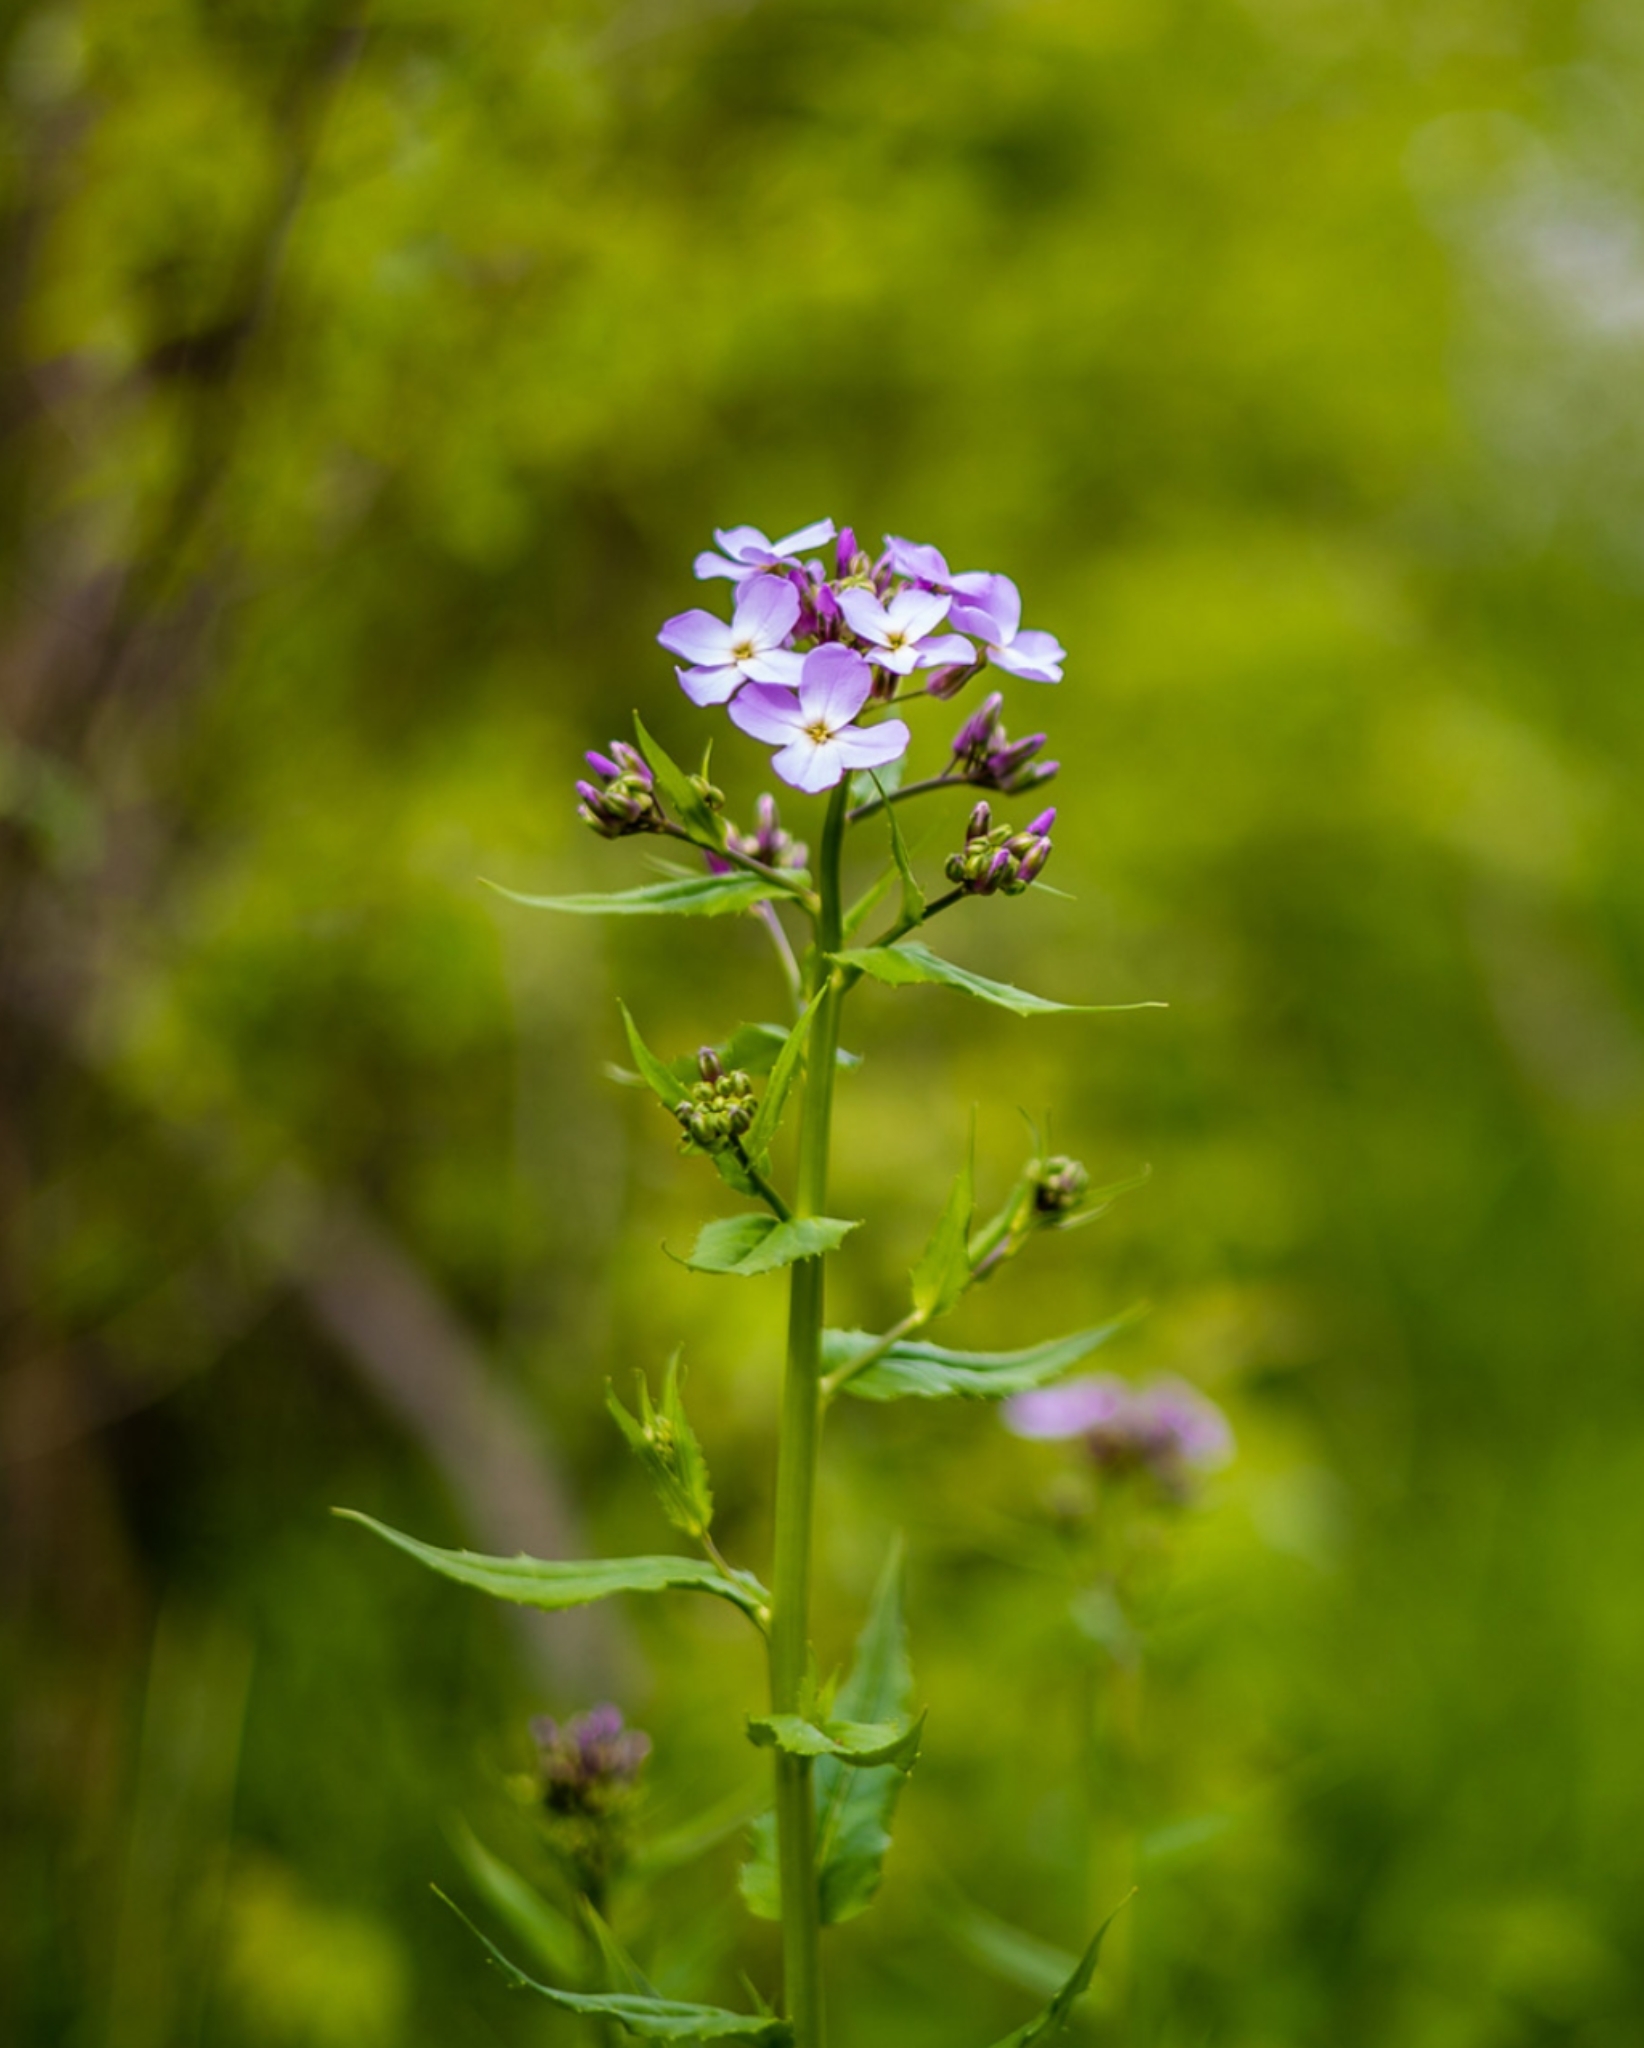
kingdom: Plantae
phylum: Tracheophyta
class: Magnoliopsida
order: Brassicales
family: Brassicaceae
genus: Hesperis
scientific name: Hesperis matronalis
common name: Dame's-violet
